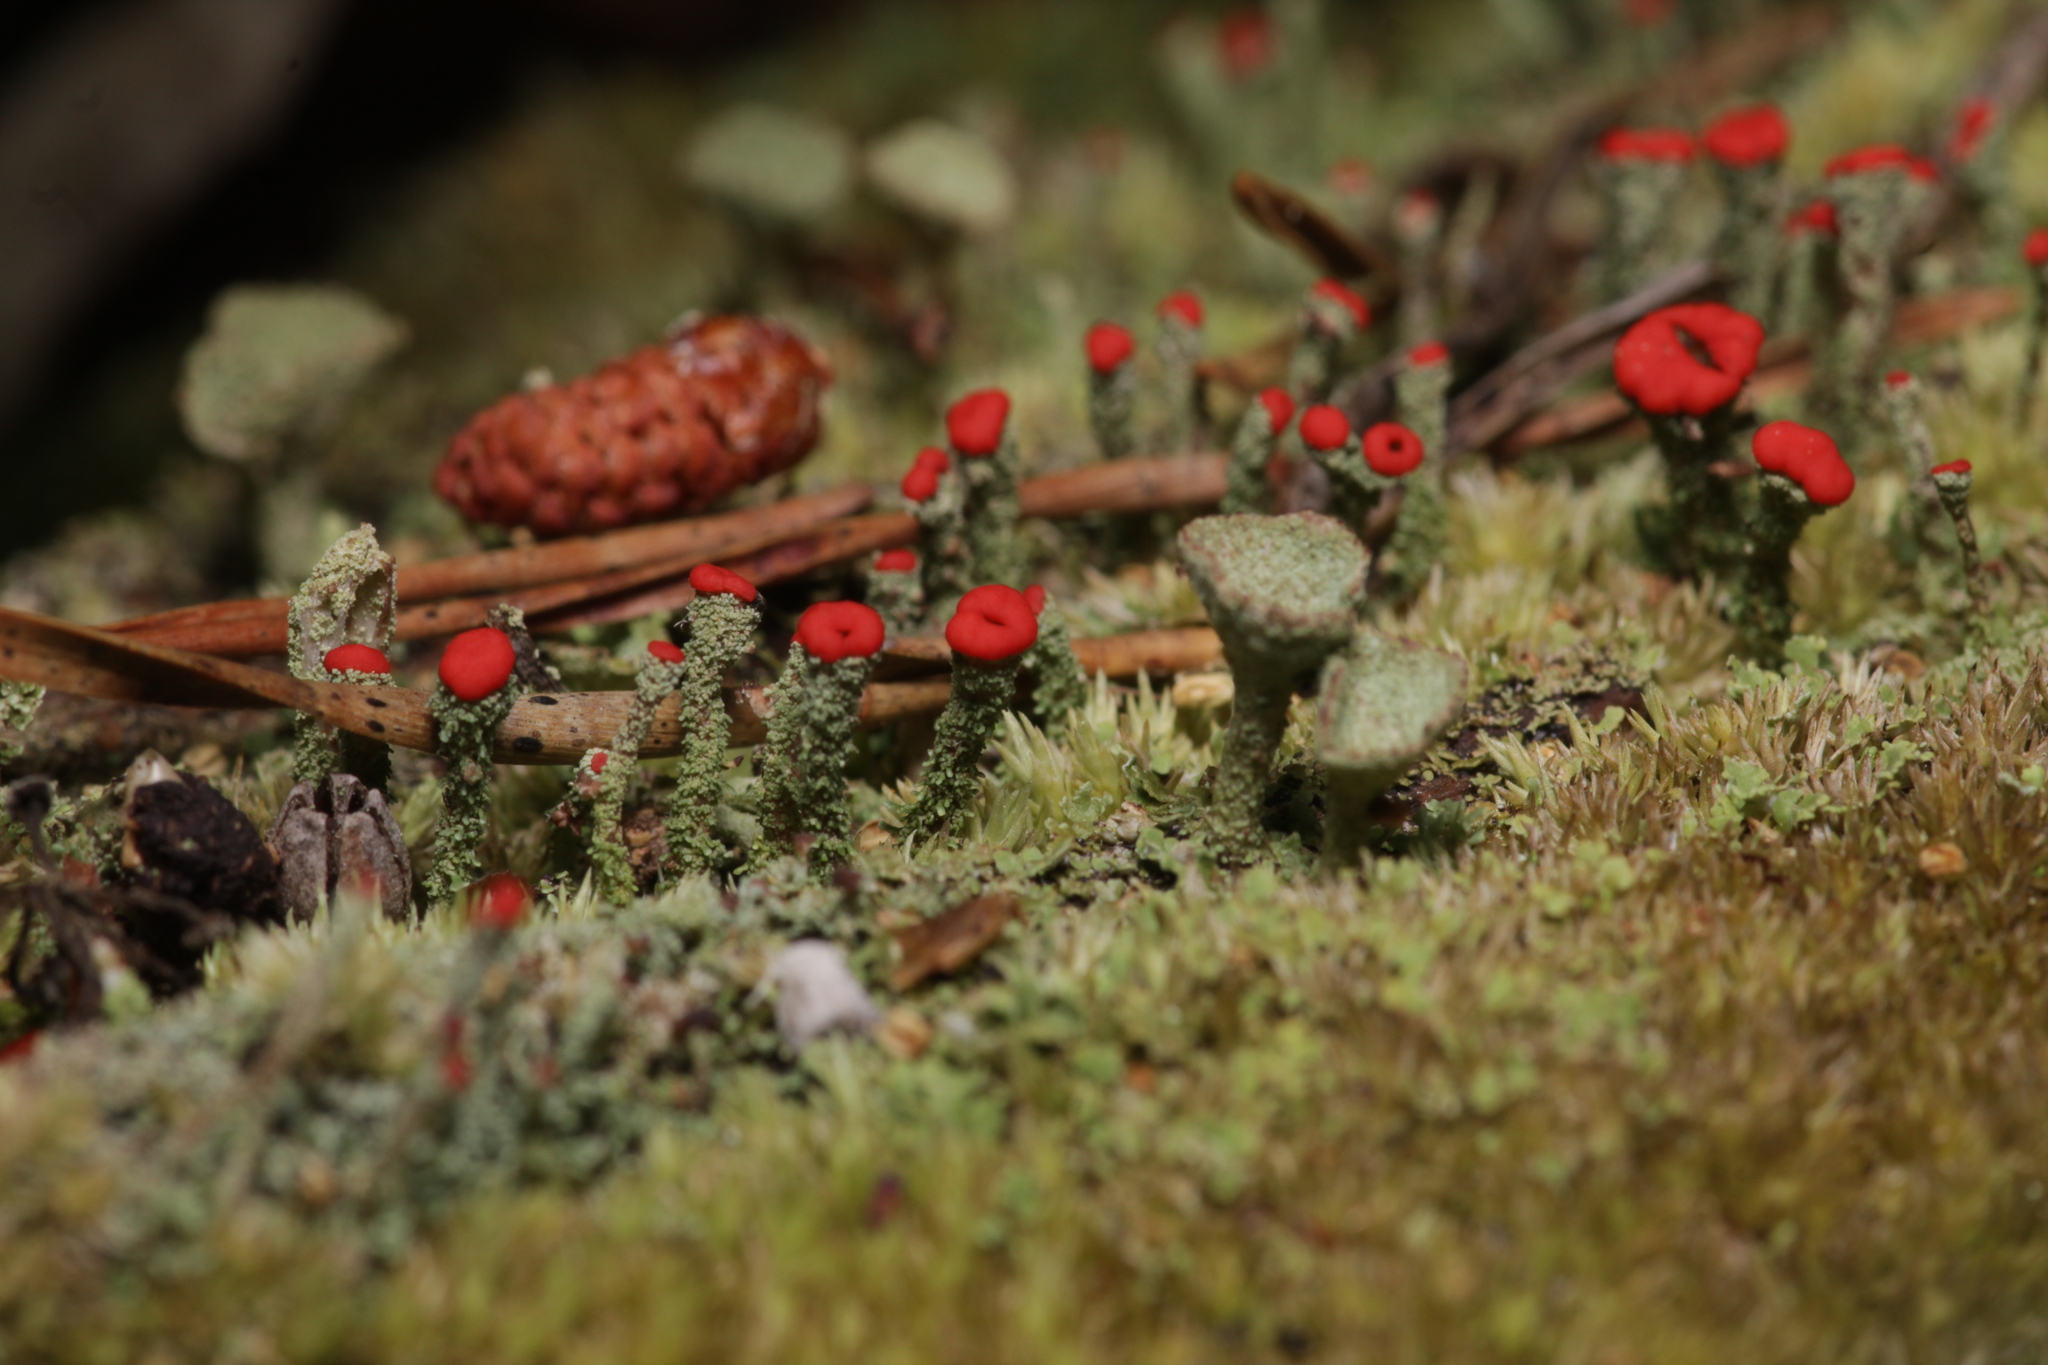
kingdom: Fungi
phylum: Ascomycota
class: Lecanoromycetes
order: Lecanorales
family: Cladoniaceae
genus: Cladonia
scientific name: Cladonia cristatella
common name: British soldier lichen
